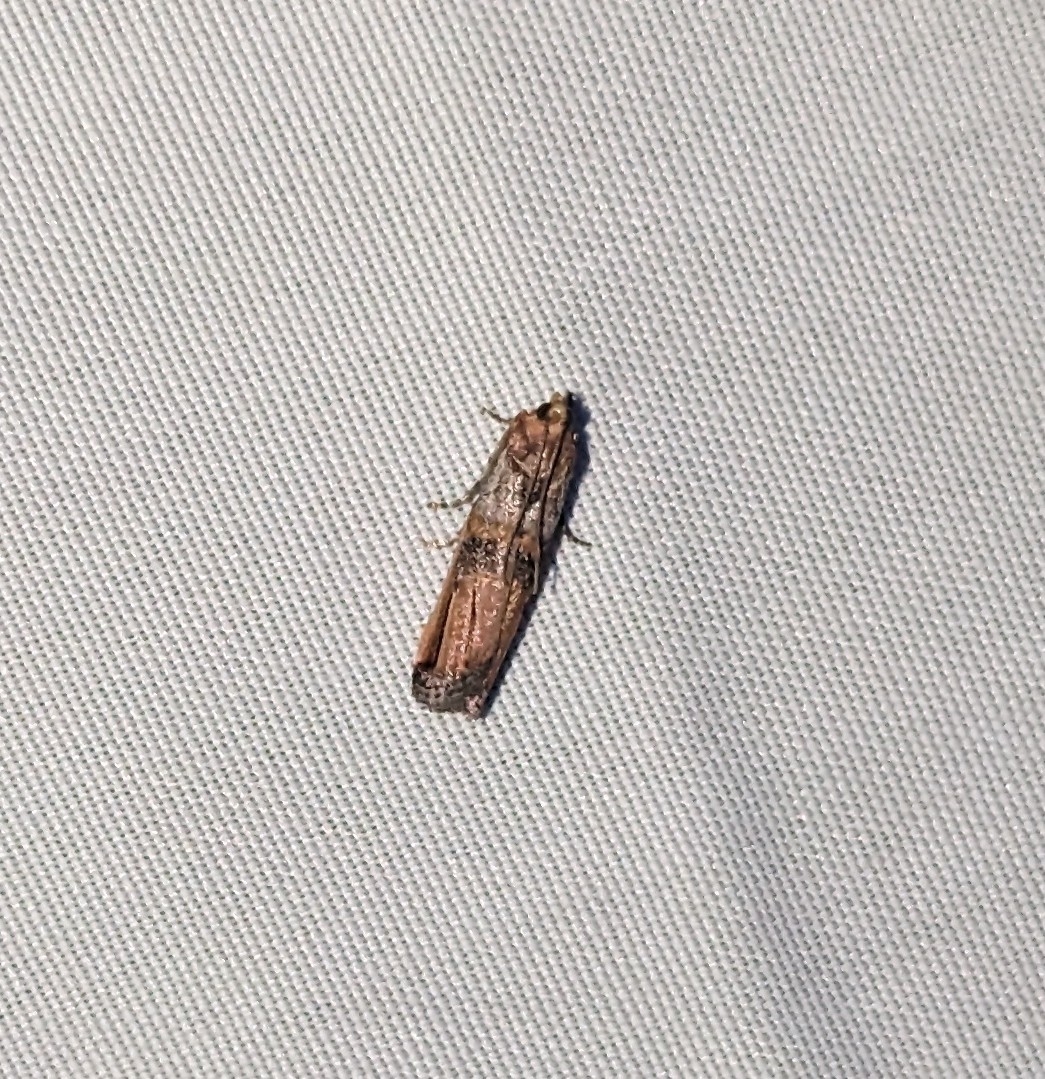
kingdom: Animalia
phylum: Arthropoda
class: Insecta
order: Lepidoptera
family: Pyralidae
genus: Dasypyga
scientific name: Dasypyga alternosquamella
